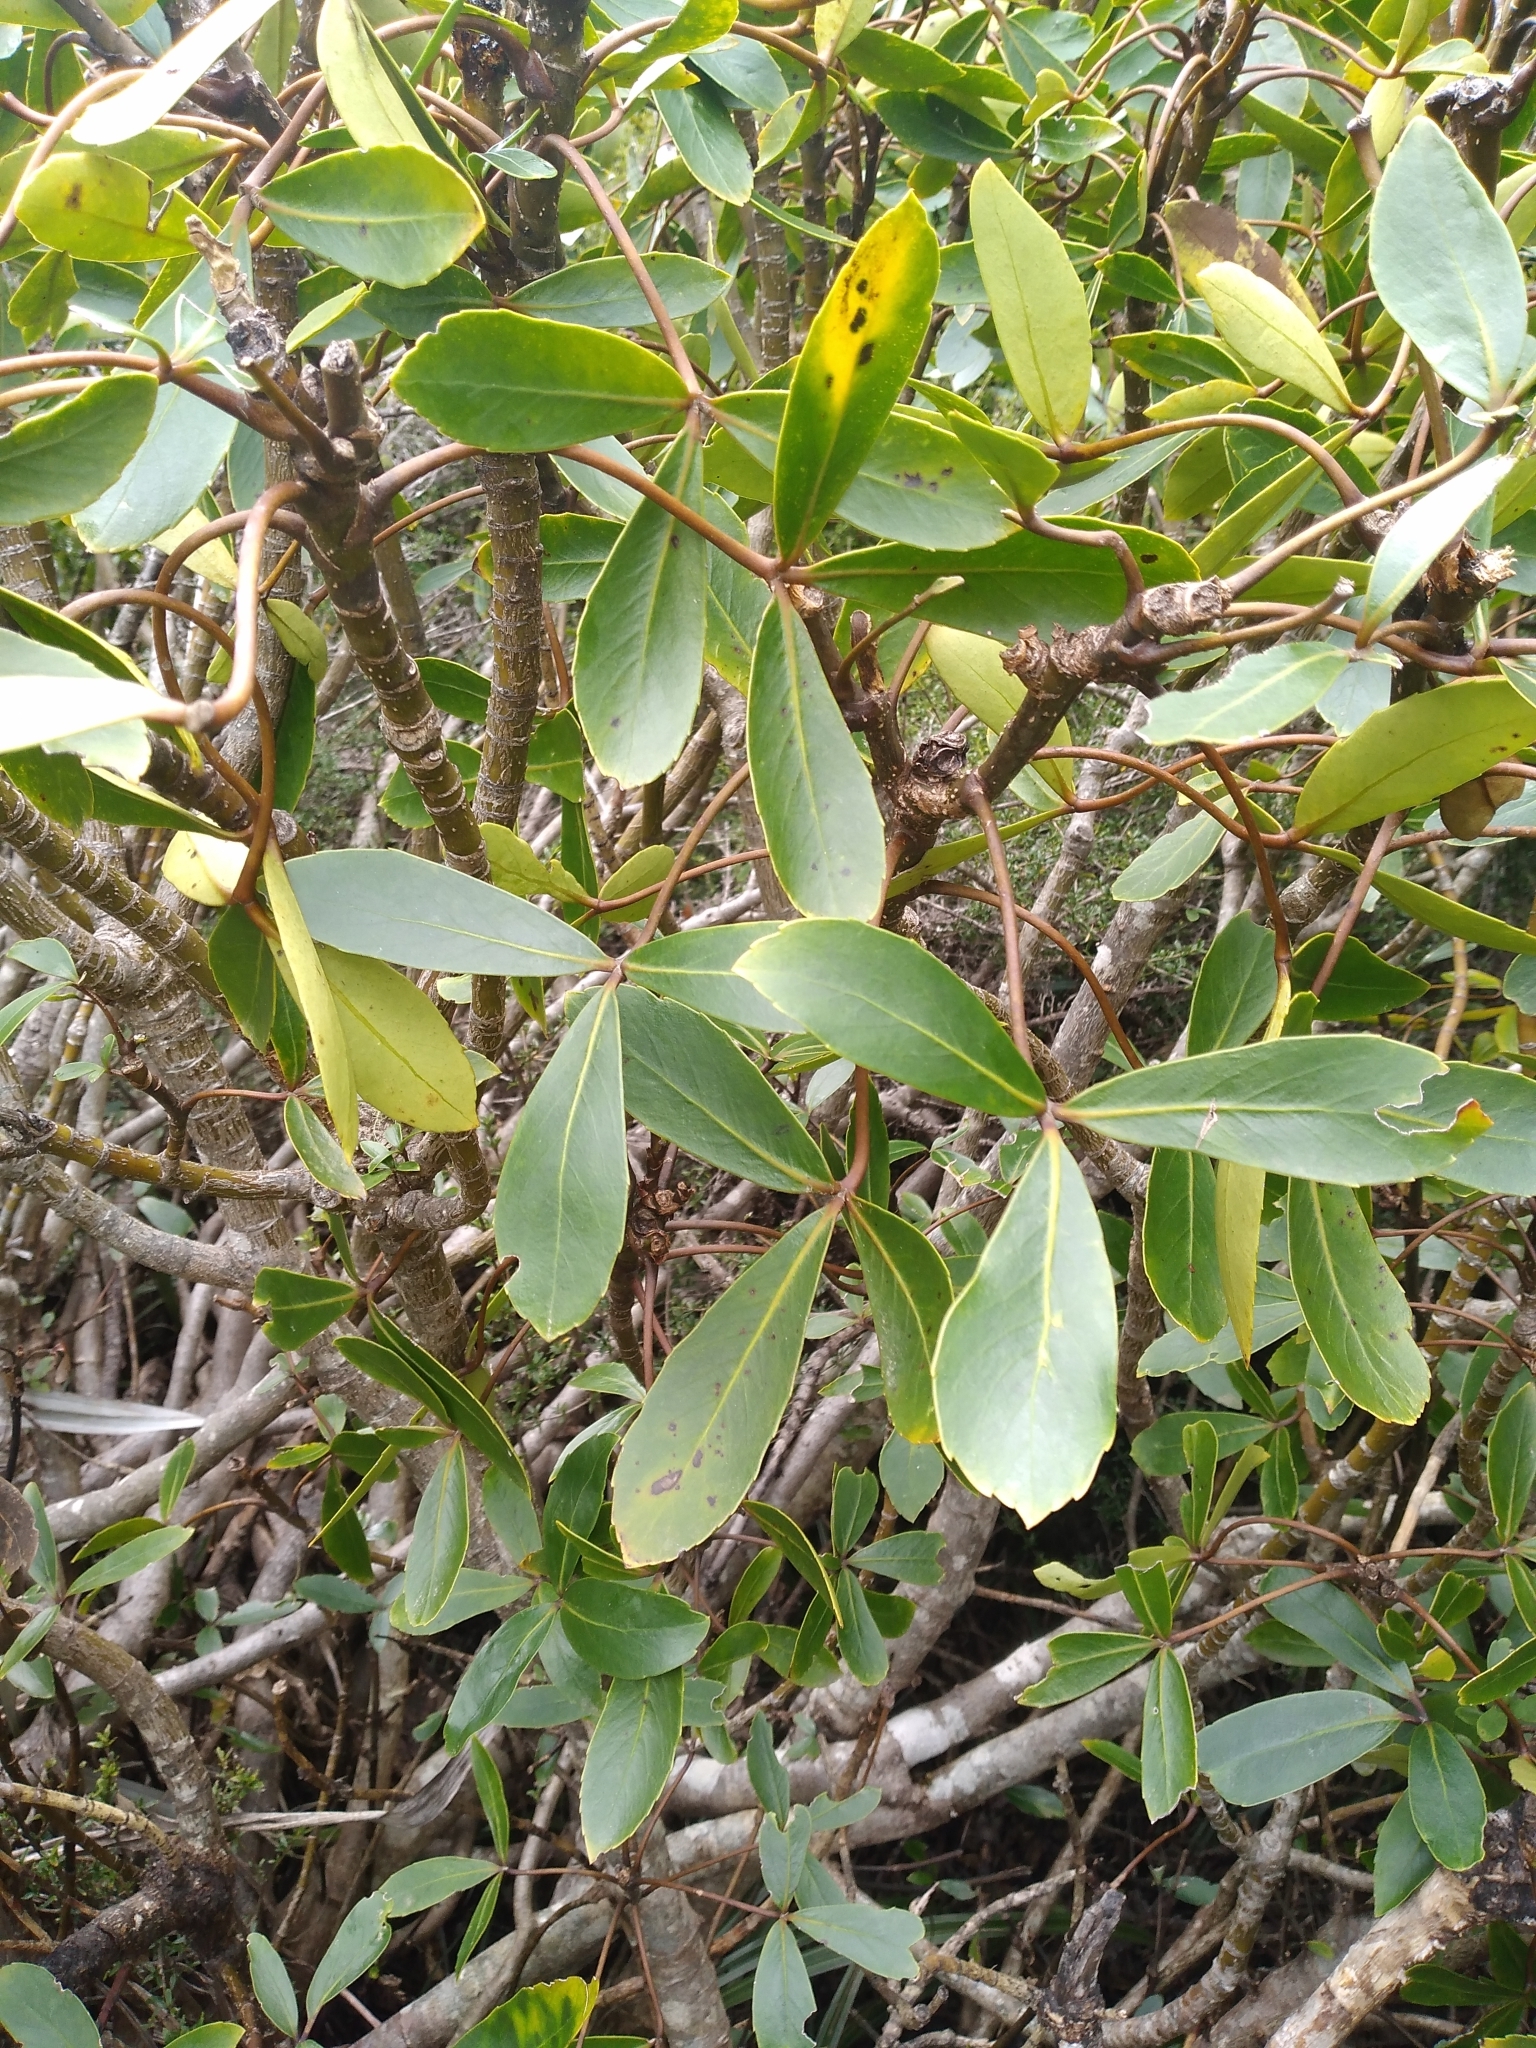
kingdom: Plantae
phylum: Tracheophyta
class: Magnoliopsida
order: Apiales
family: Araliaceae
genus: Neopanax
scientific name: Neopanax colensoi
